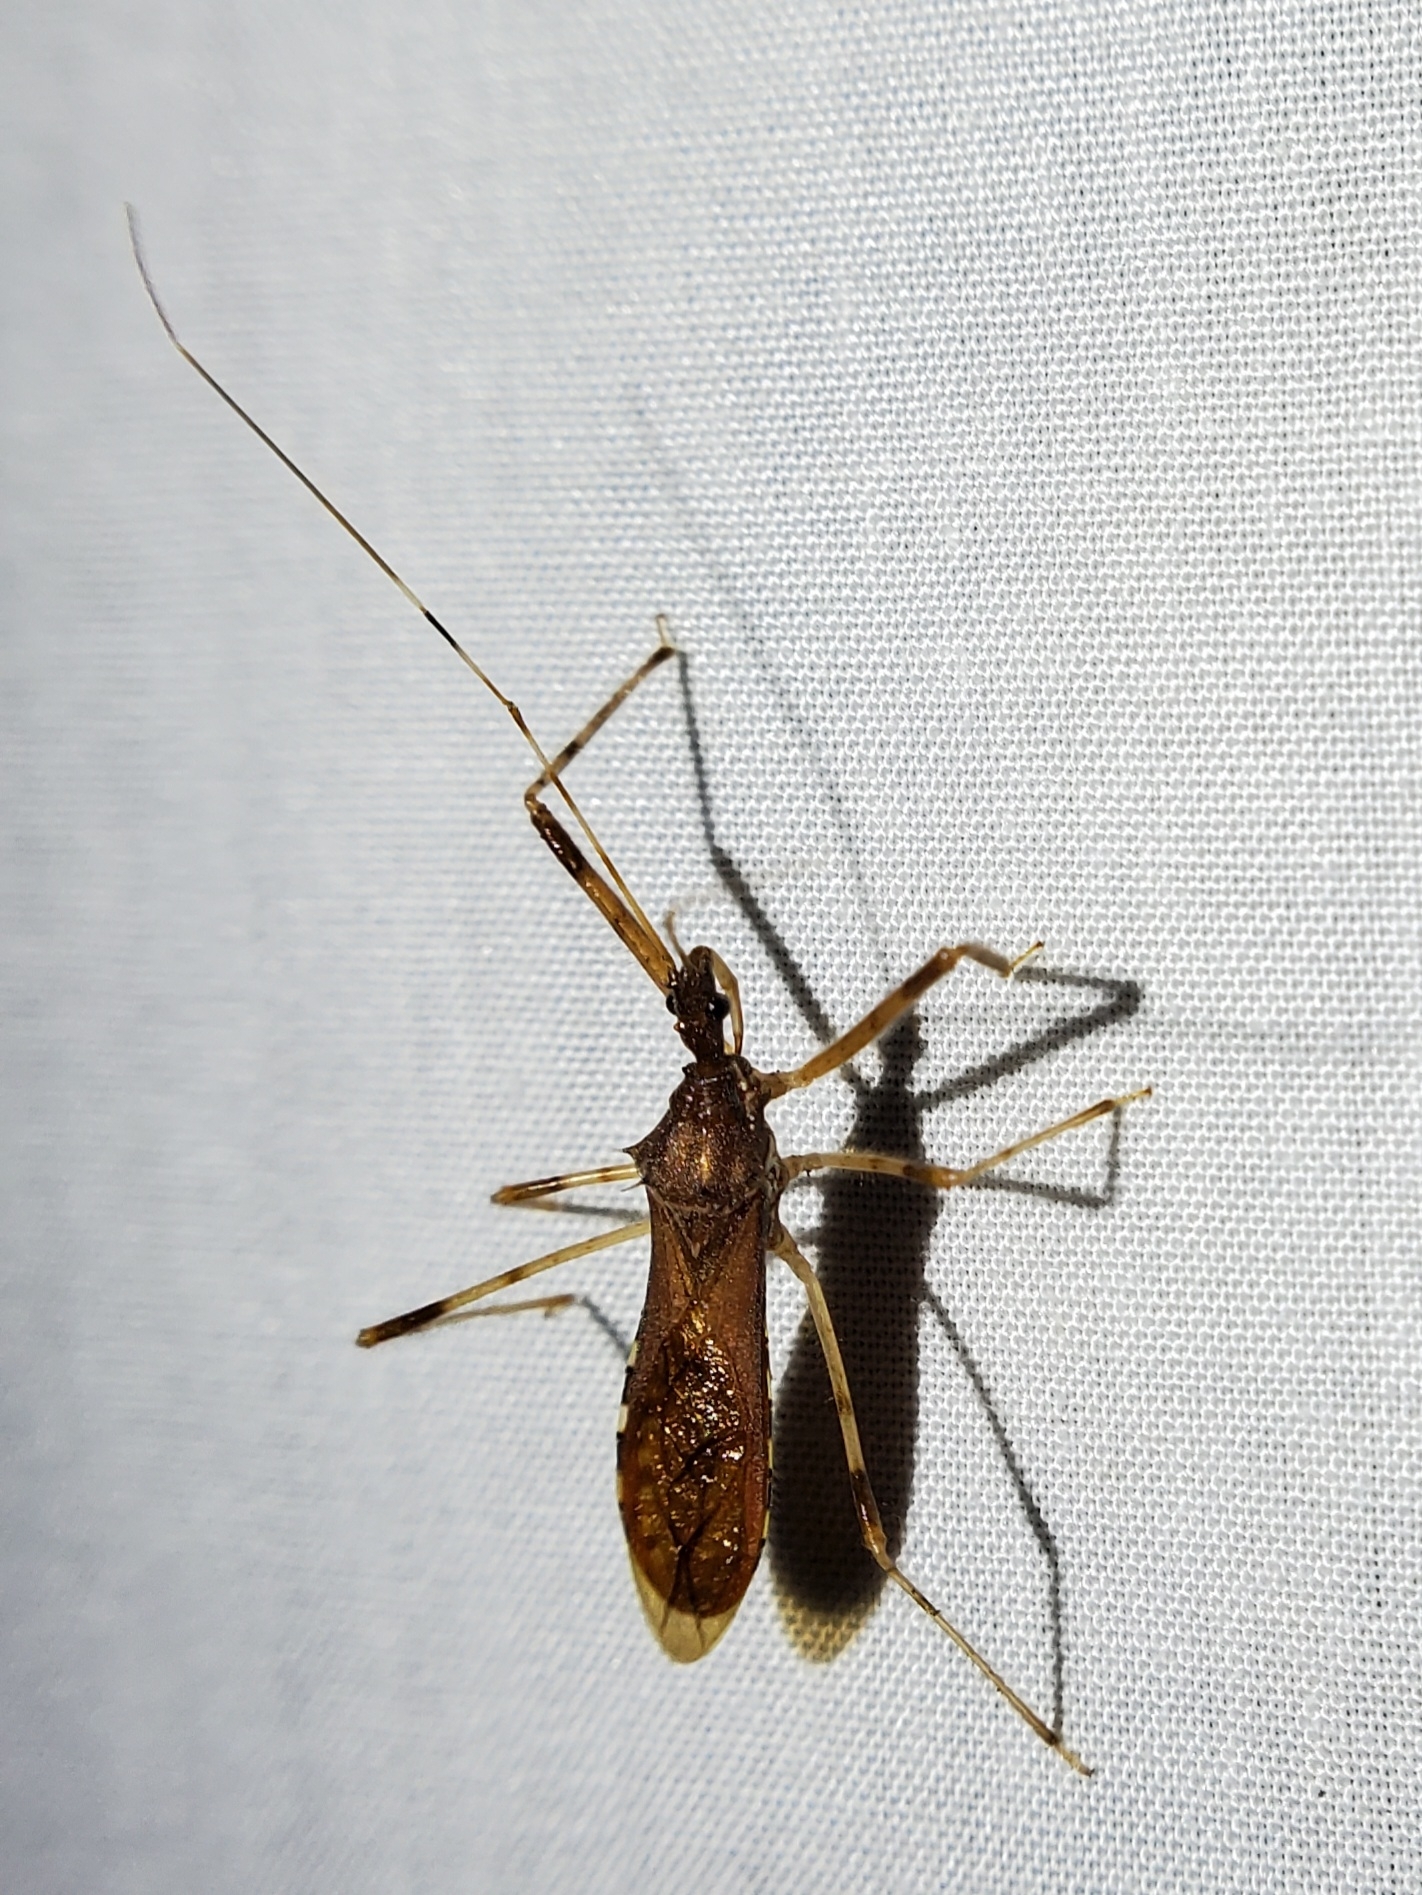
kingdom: Animalia
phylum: Arthropoda
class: Insecta
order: Hemiptera
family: Reduviidae
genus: Rocconota
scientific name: Rocconota annulicornis
